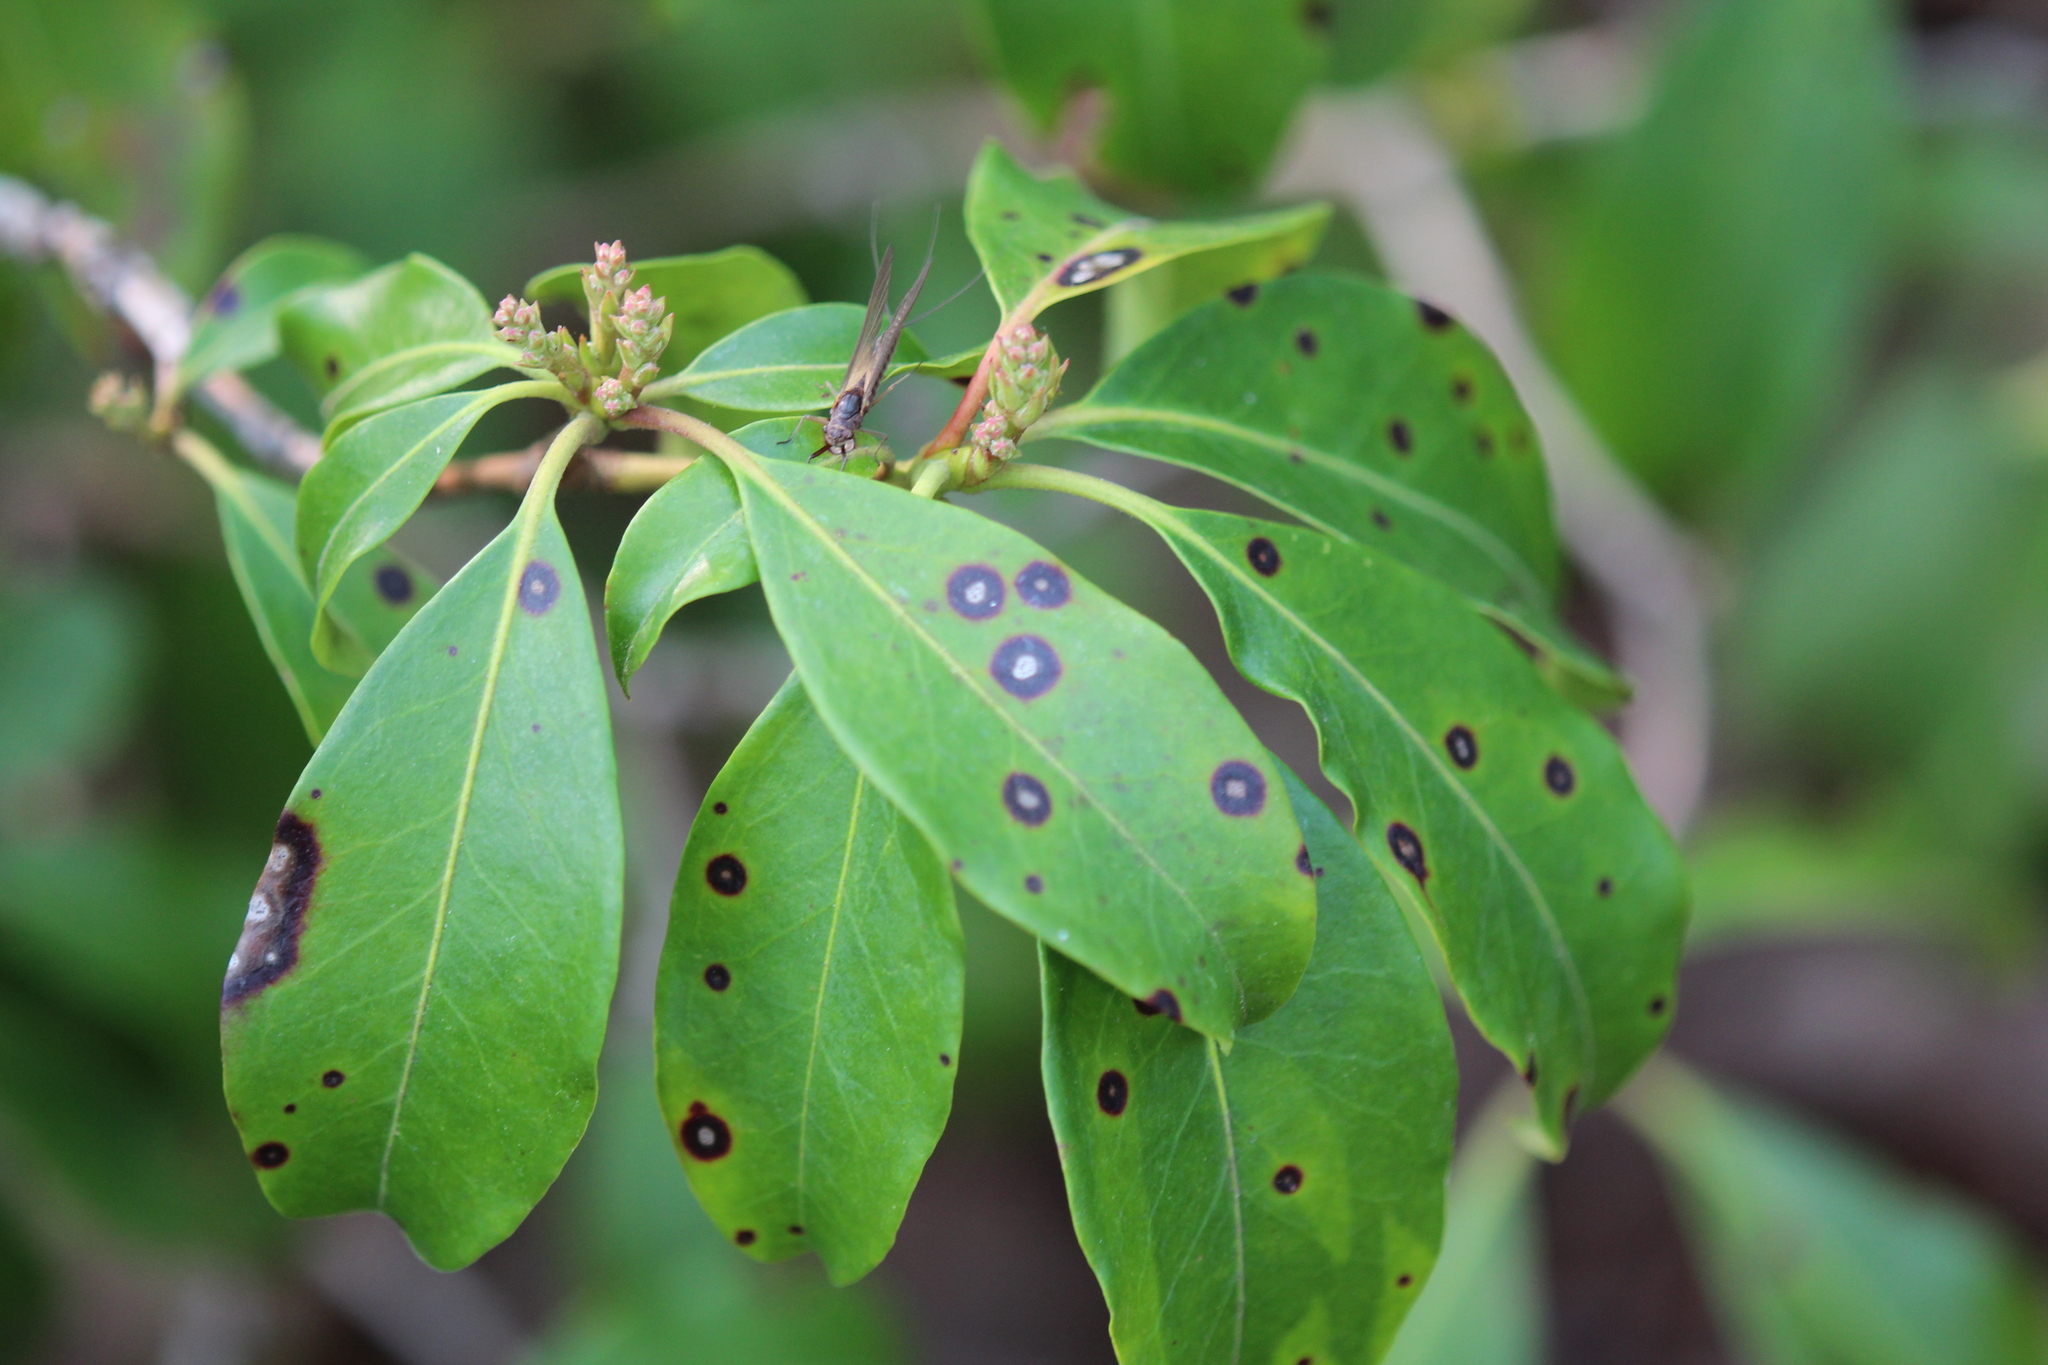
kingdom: Plantae
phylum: Tracheophyta
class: Magnoliopsida
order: Ericales
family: Ericaceae
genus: Kalmia
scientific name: Kalmia latifolia
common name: Mountain-laurel
